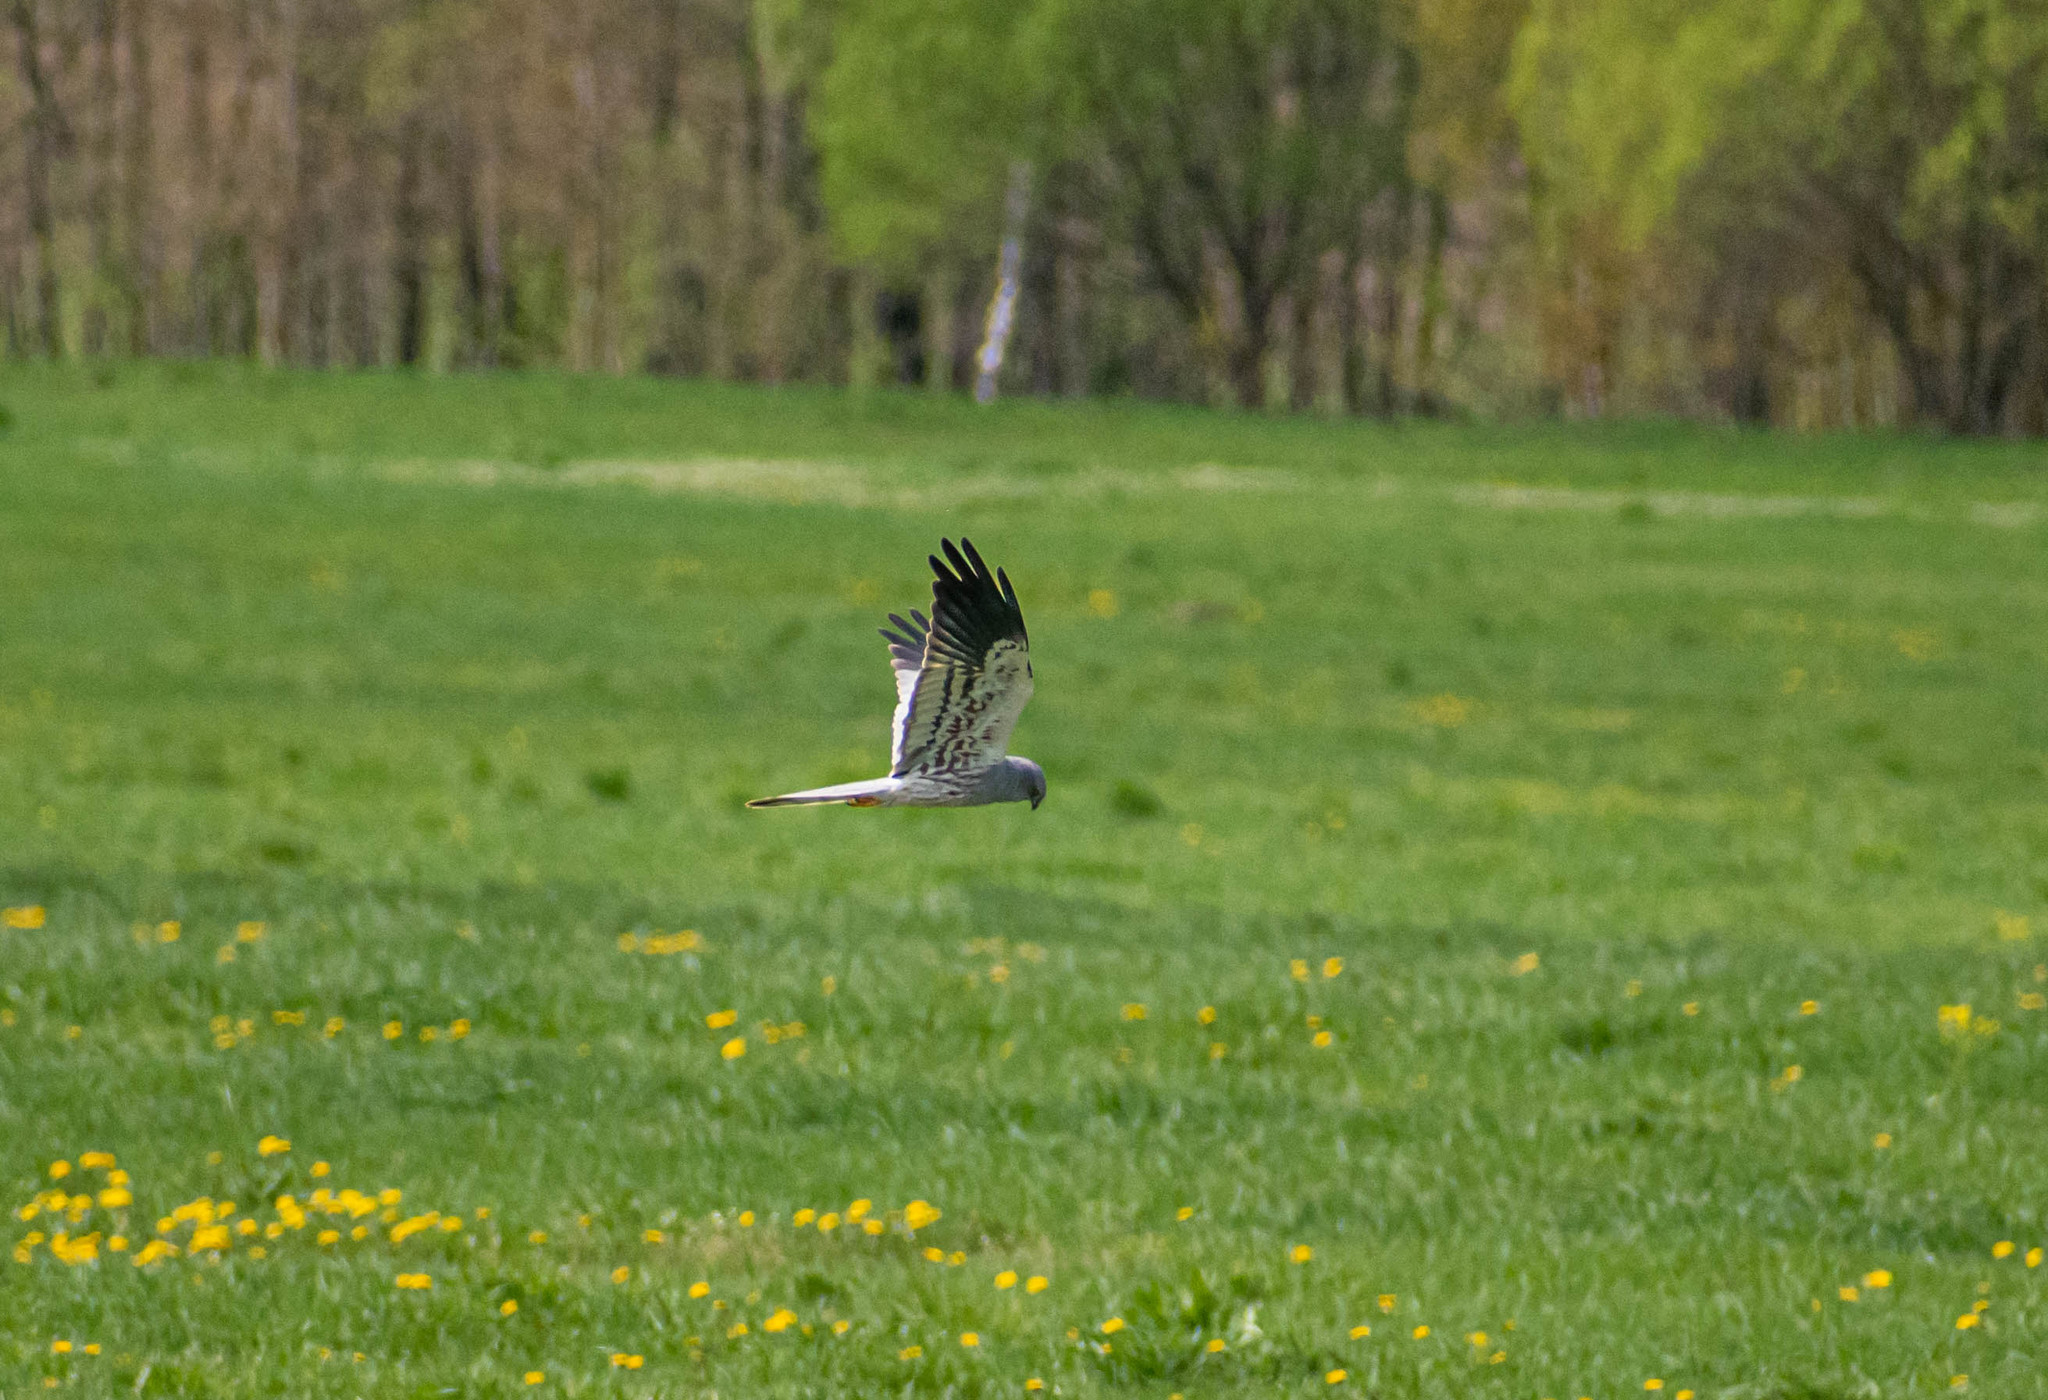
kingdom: Animalia
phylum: Chordata
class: Aves
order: Accipitriformes
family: Accipitridae
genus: Circus
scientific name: Circus pygargus
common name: Montagu's harrier
